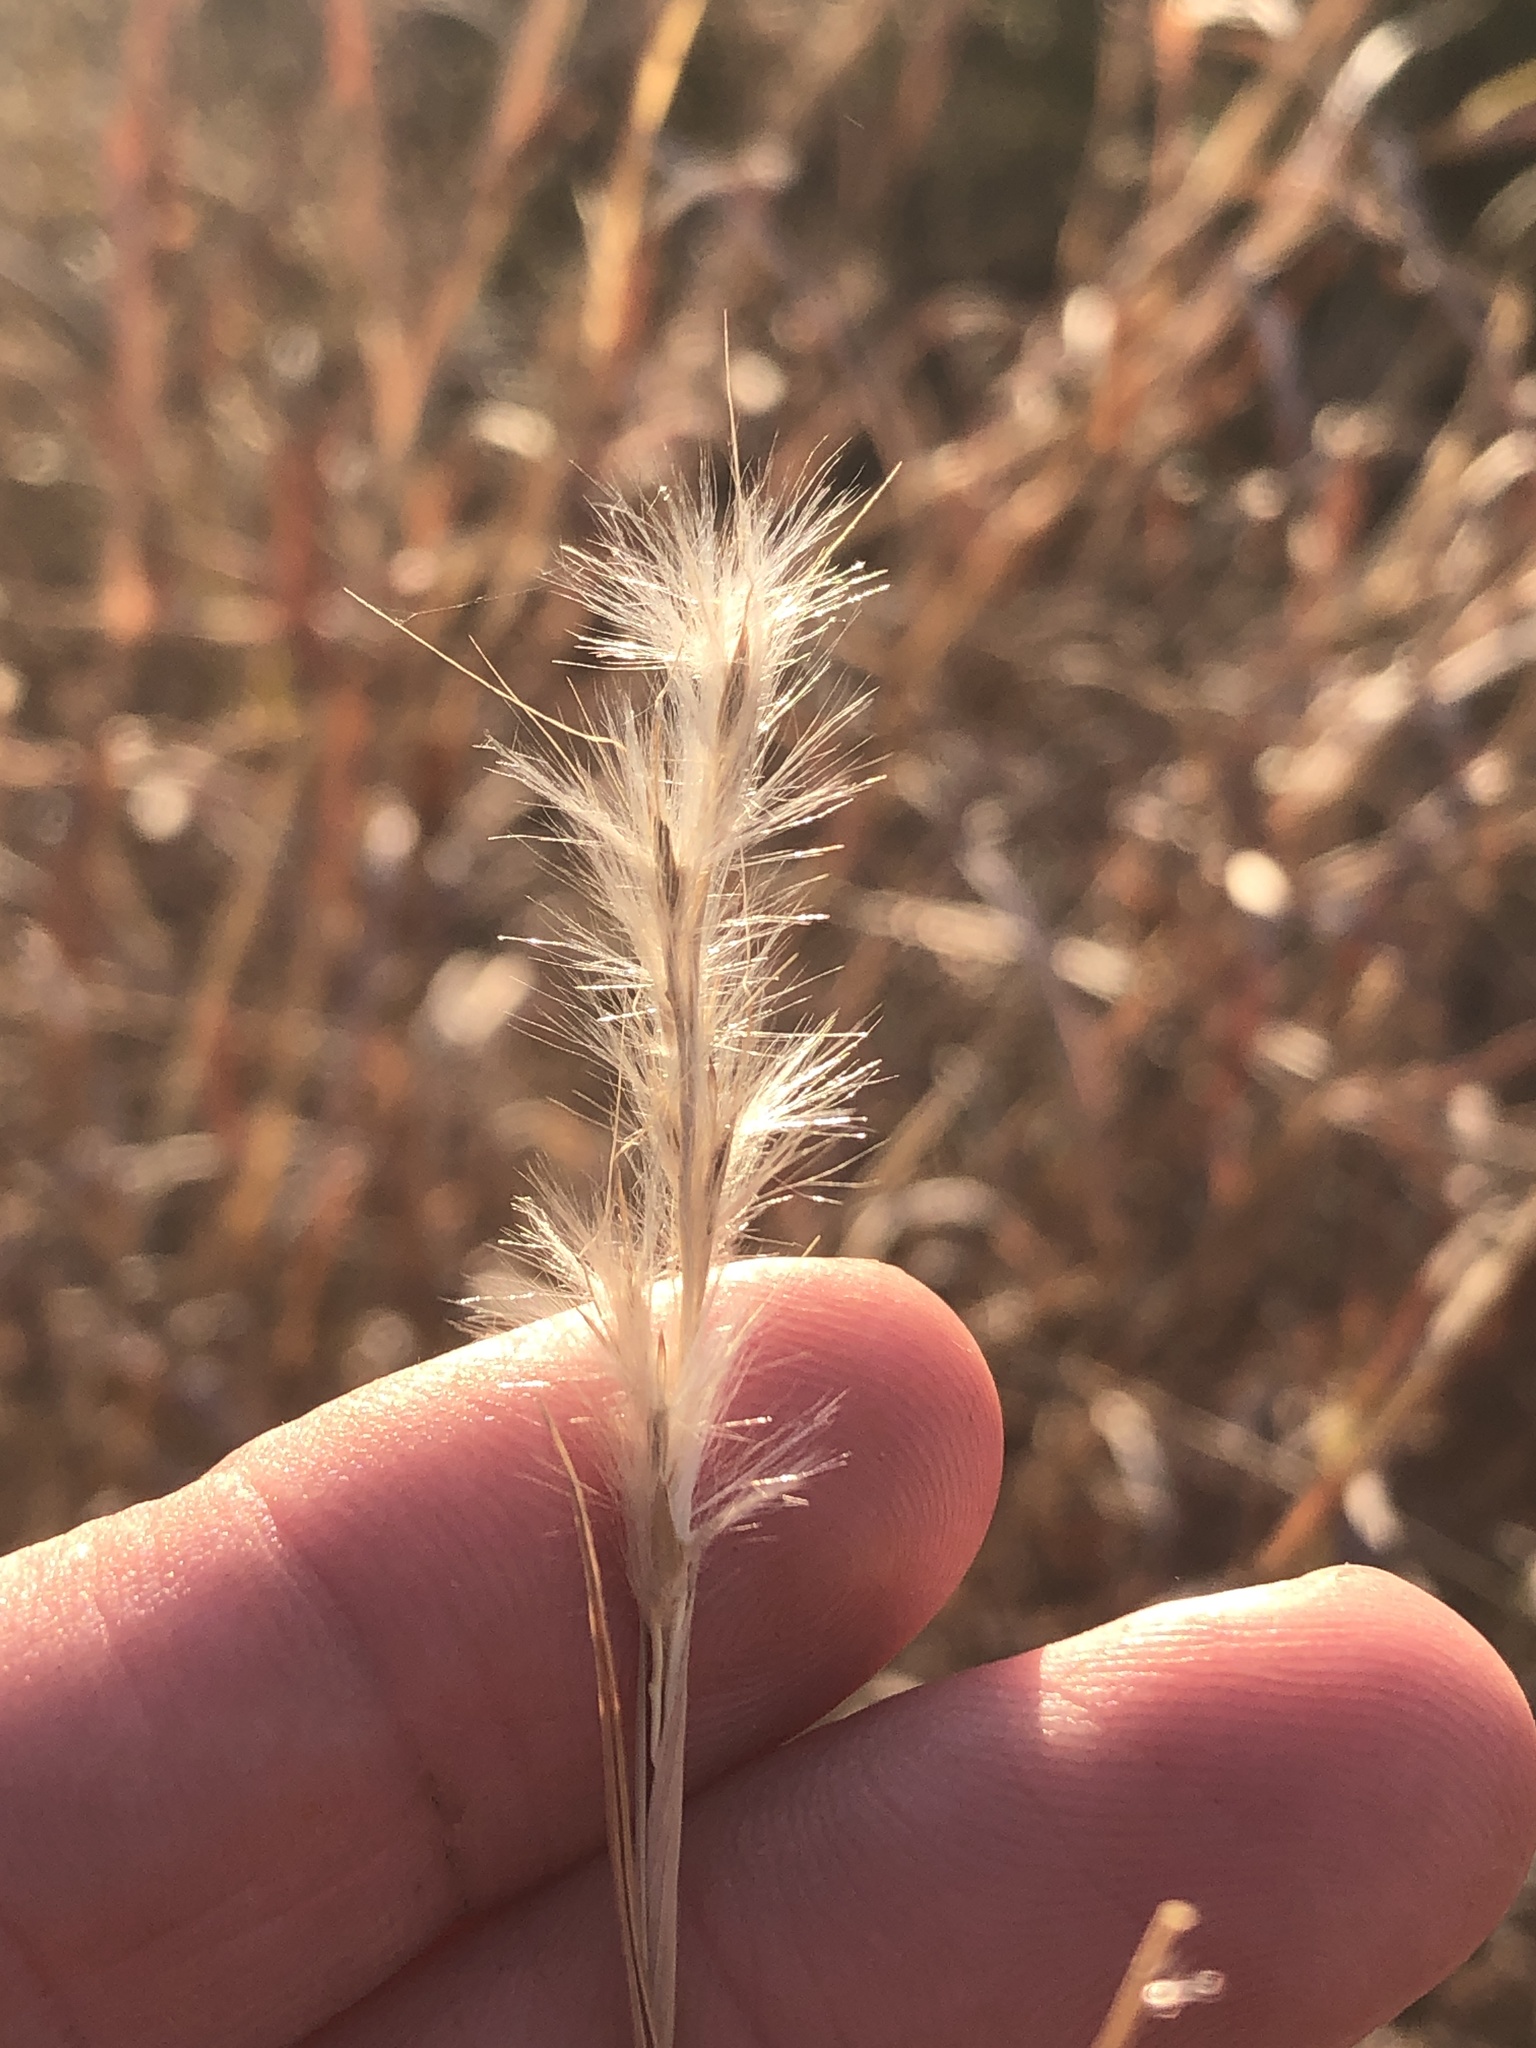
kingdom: Plantae
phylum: Tracheophyta
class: Liliopsida
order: Poales
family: Poaceae
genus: Bothriochloa
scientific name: Bothriochloa torreyana
